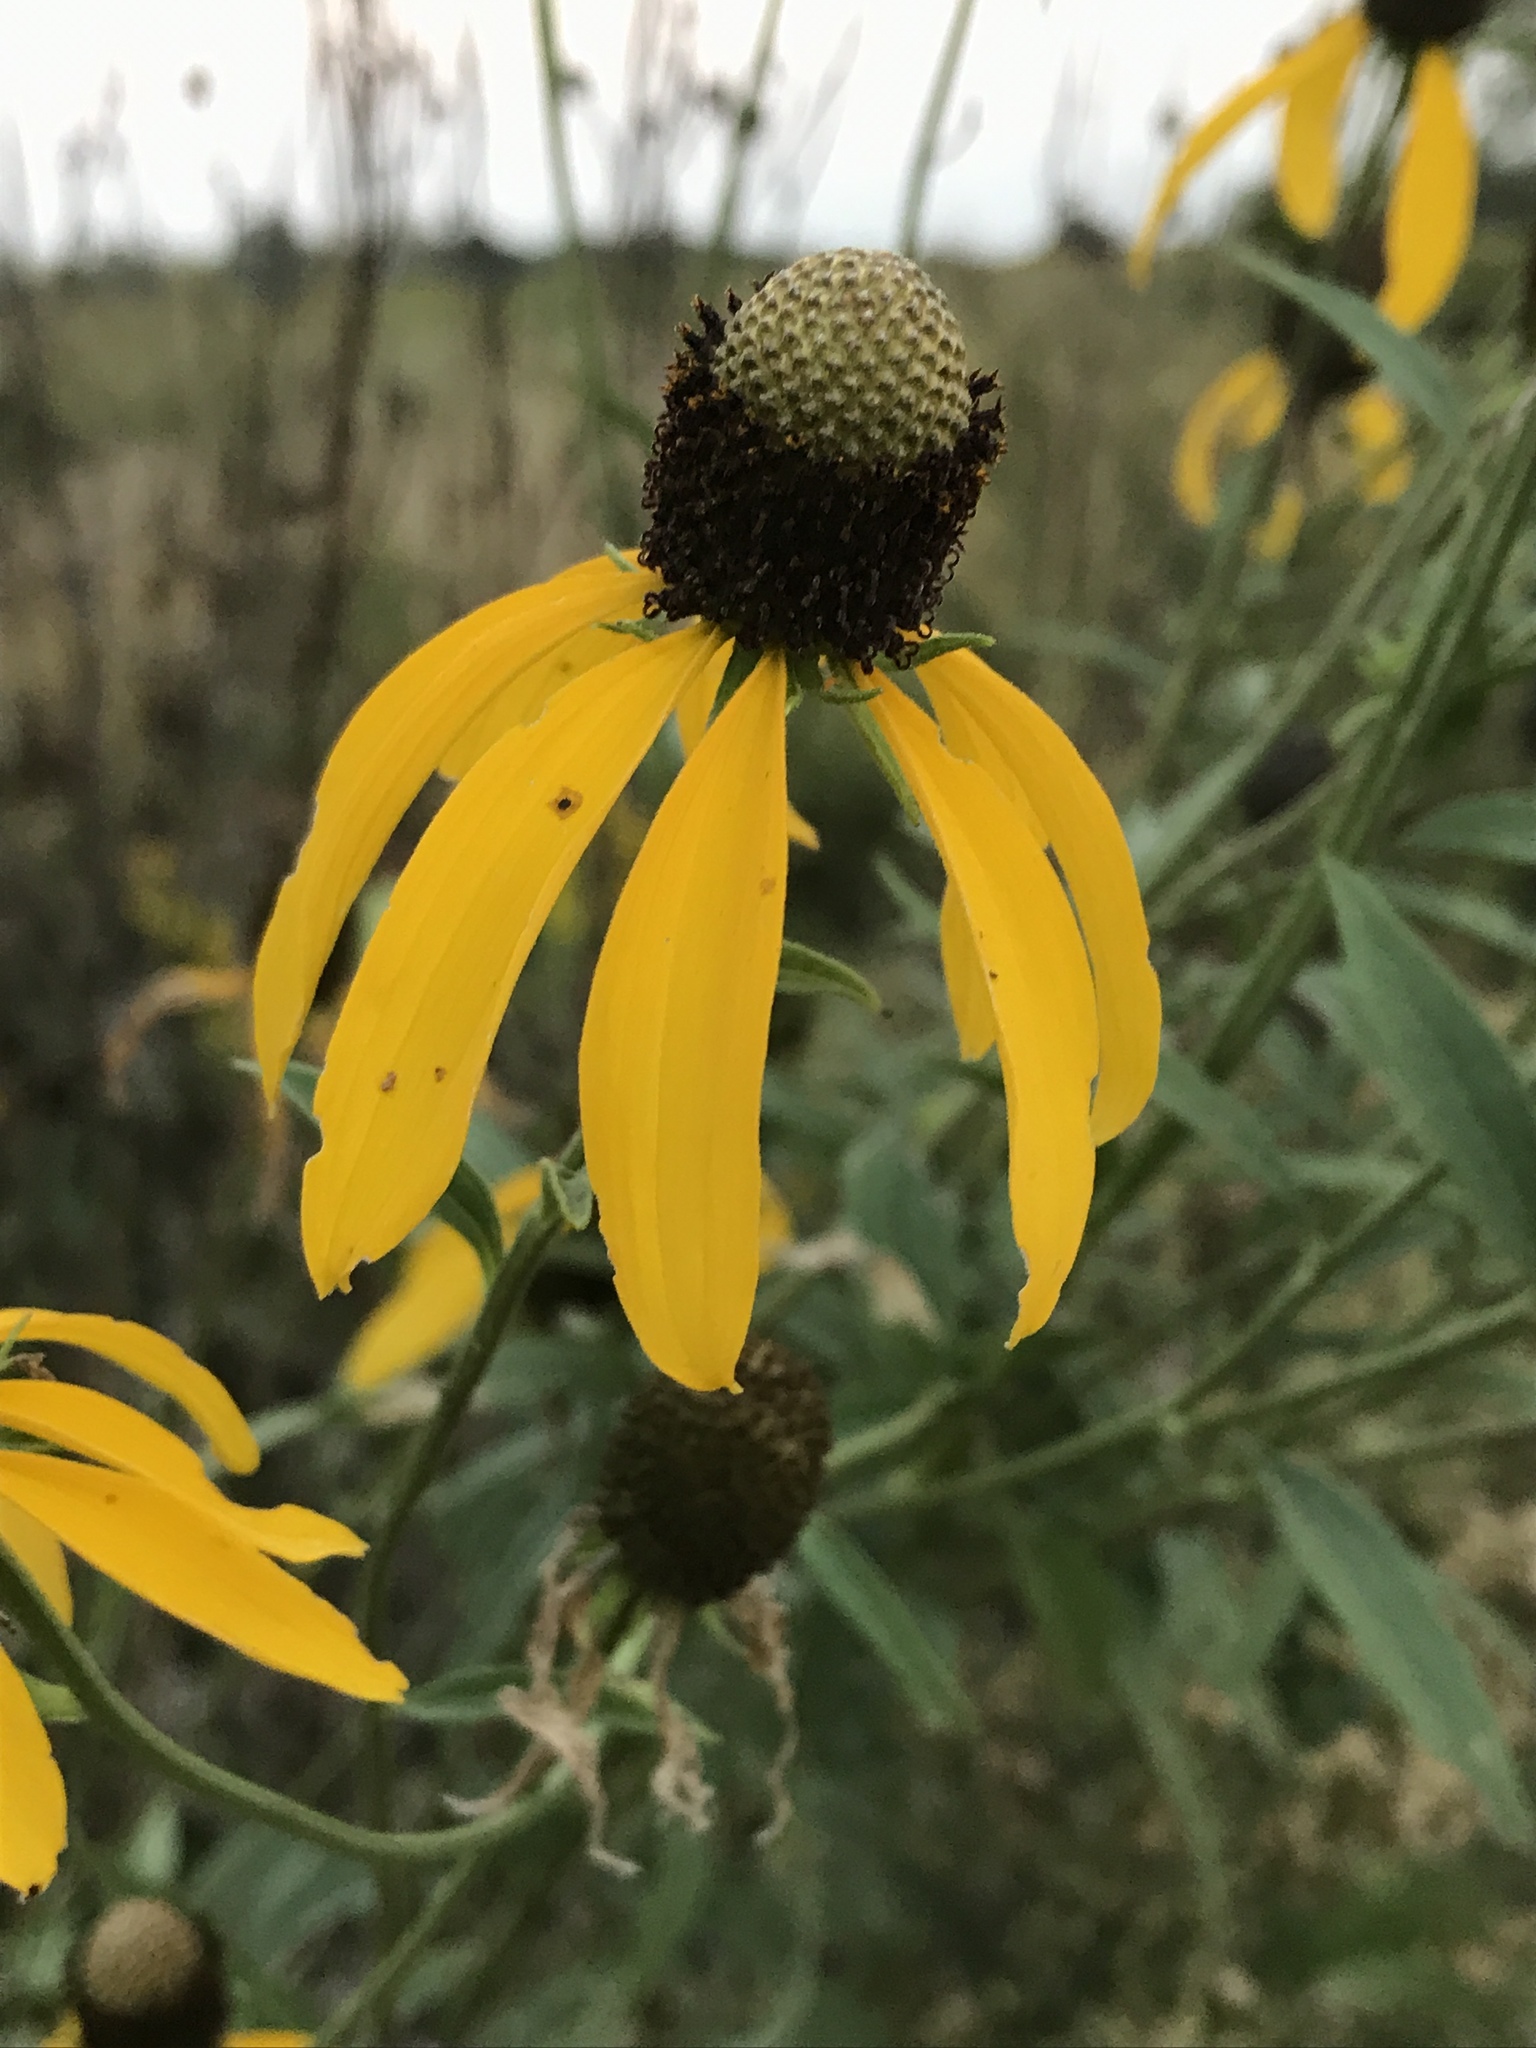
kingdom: Plantae
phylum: Tracheophyta
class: Magnoliopsida
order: Asterales
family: Asteraceae
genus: Ratibida
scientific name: Ratibida pinnata
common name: Drooping prairie-coneflower
